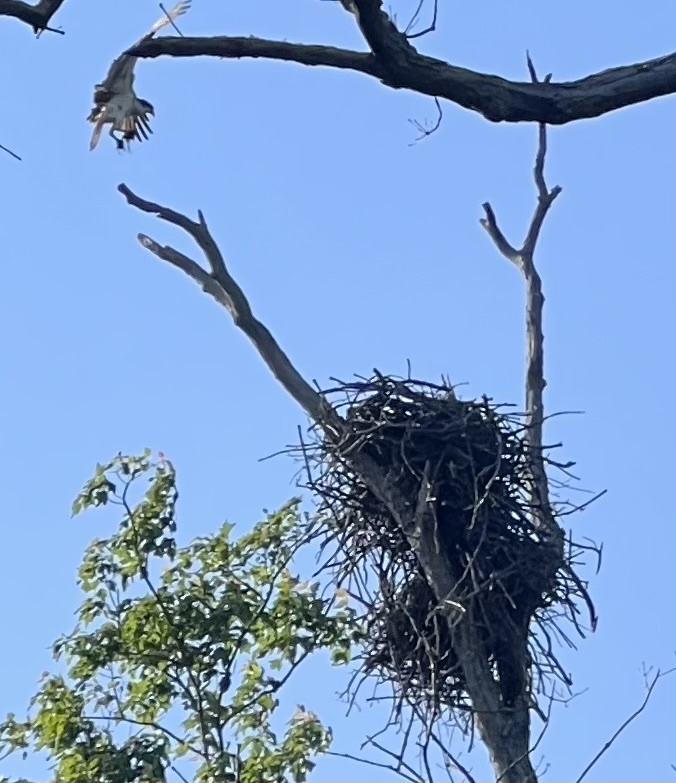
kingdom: Animalia
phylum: Chordata
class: Aves
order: Accipitriformes
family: Pandionidae
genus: Pandion
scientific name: Pandion haliaetus
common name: Osprey
